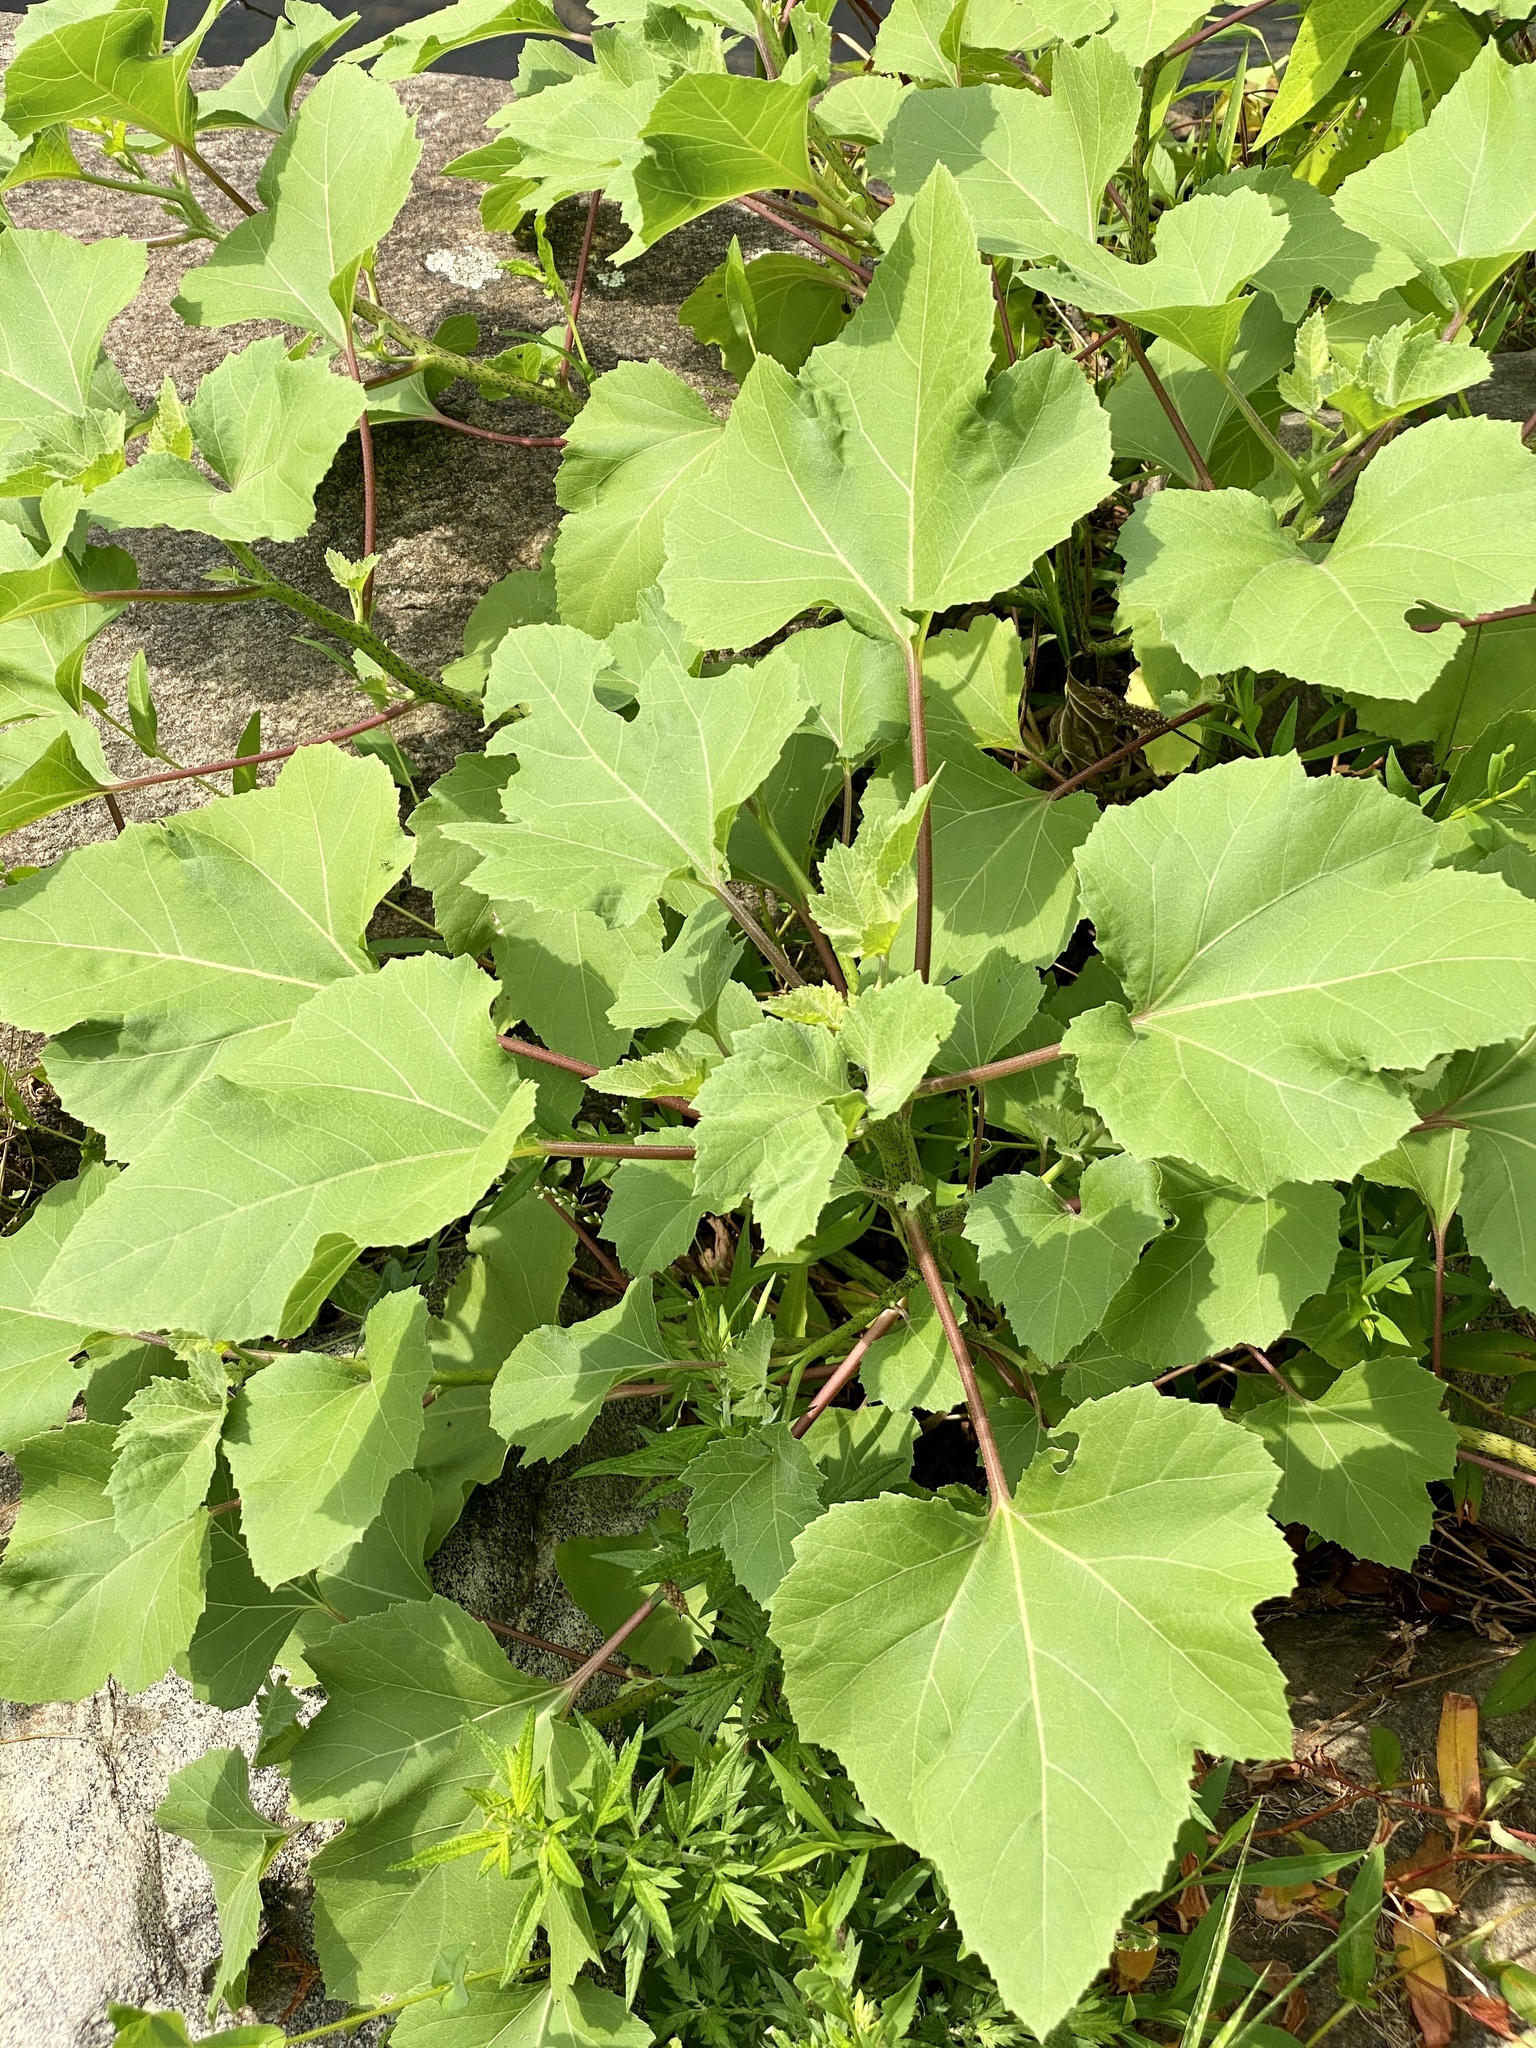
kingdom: Plantae
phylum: Tracheophyta
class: Magnoliopsida
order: Asterales
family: Asteraceae
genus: Xanthium
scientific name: Xanthium strumarium
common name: Rough cocklebur
